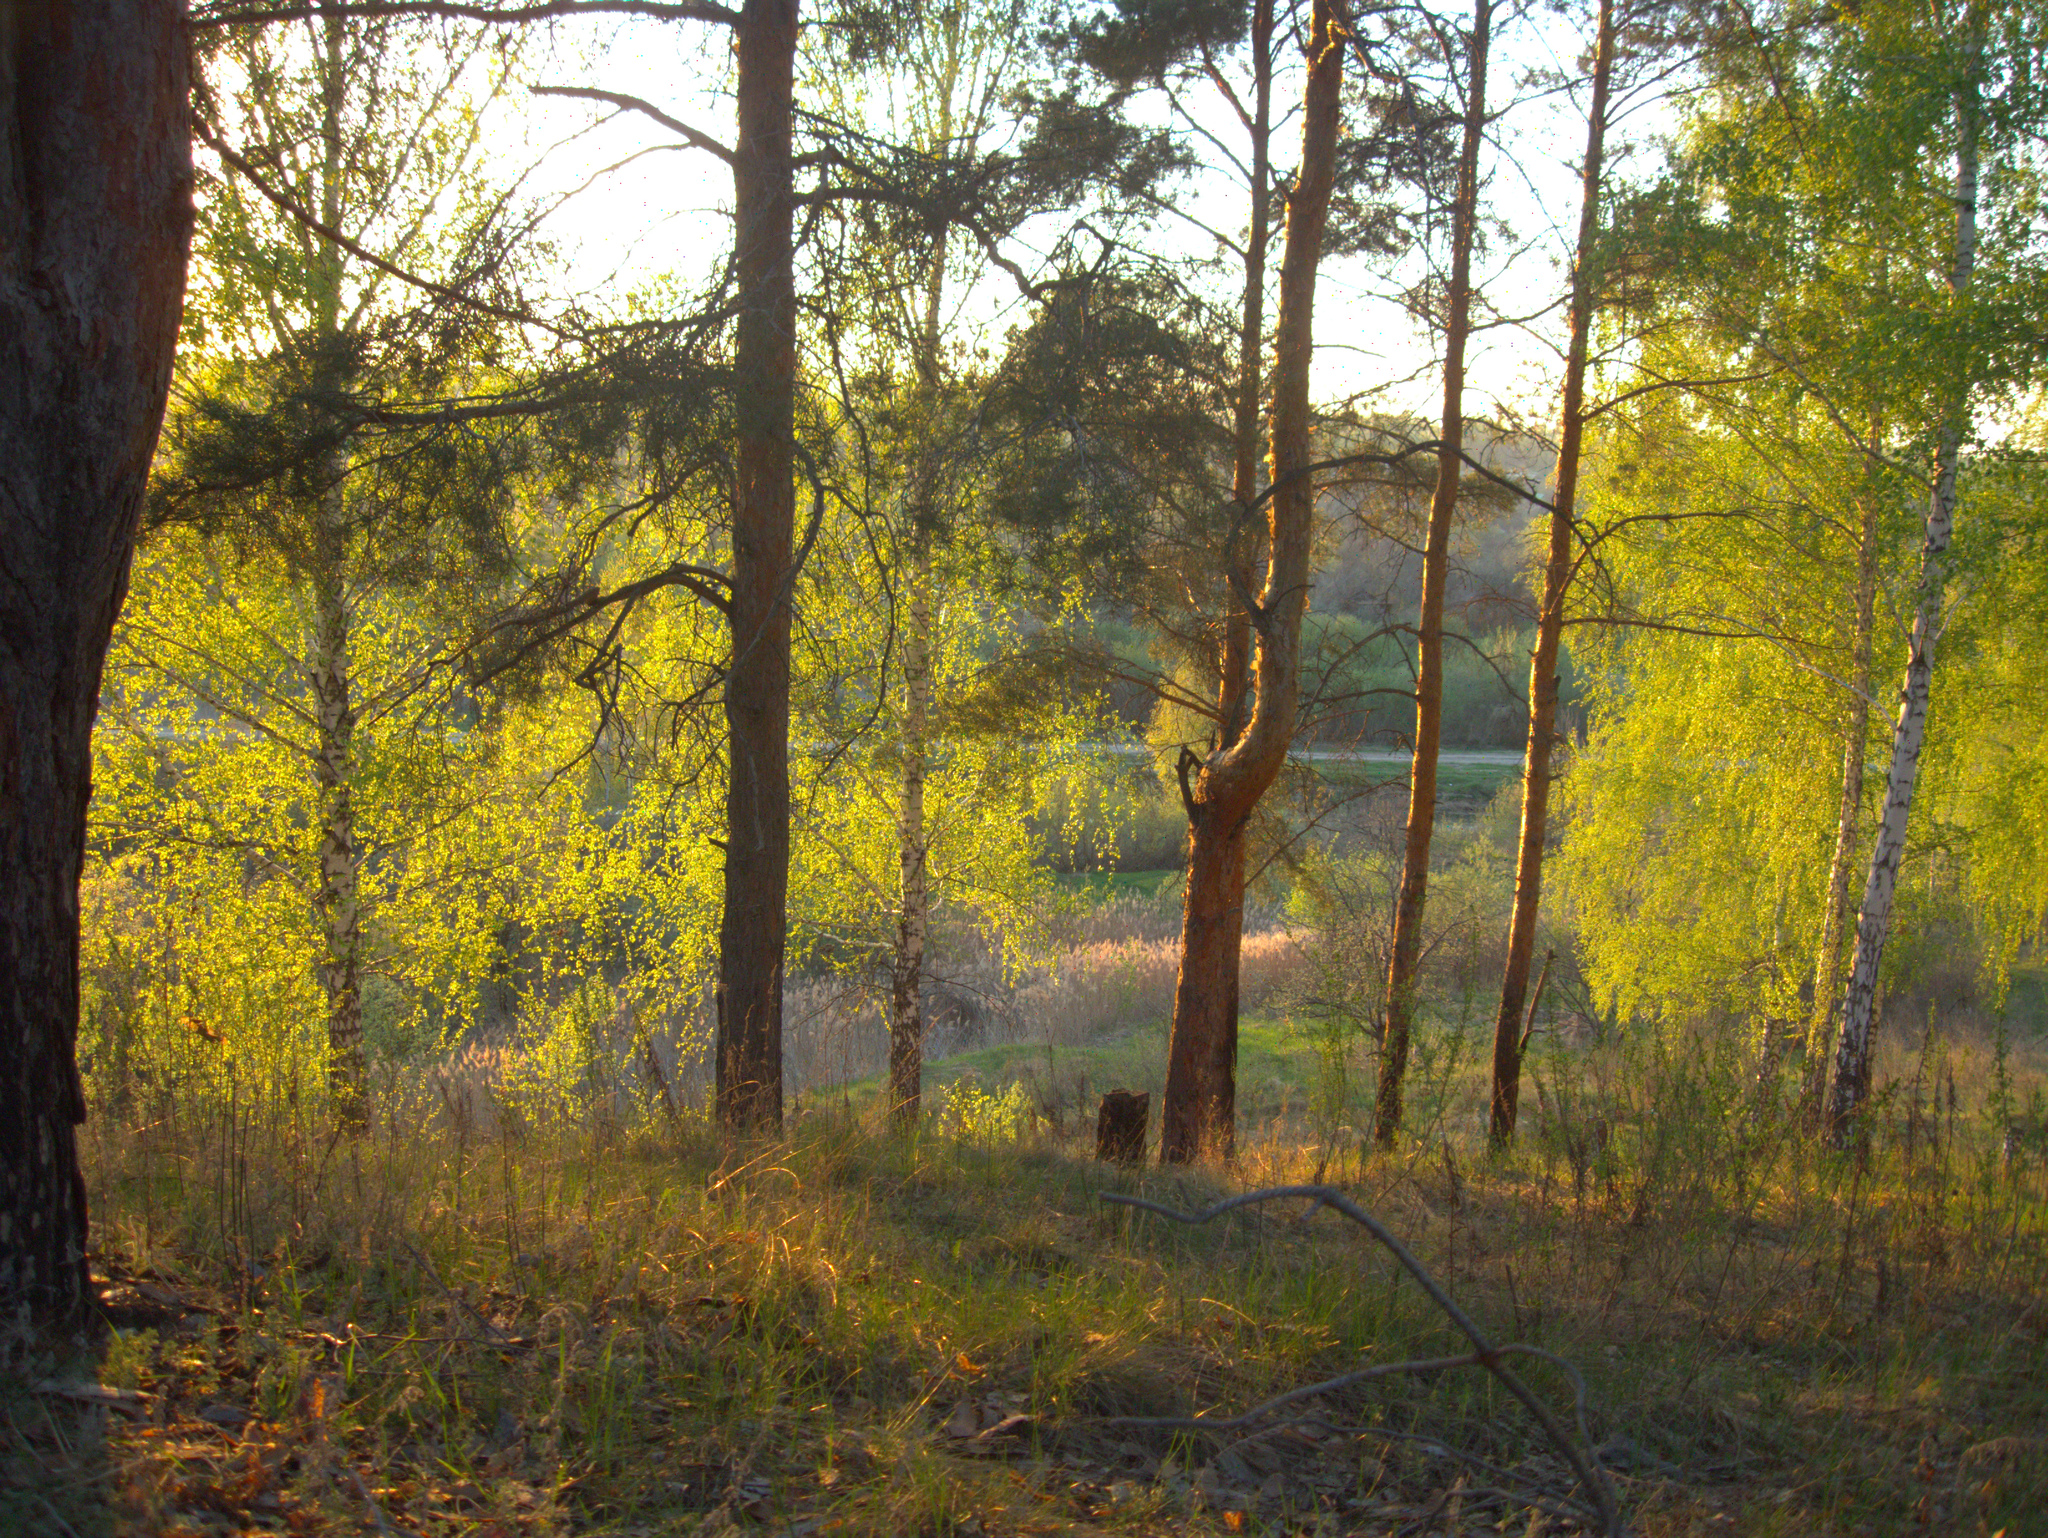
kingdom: Plantae
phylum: Tracheophyta
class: Magnoliopsida
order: Fagales
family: Betulaceae
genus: Betula
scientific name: Betula pendula
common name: Silver birch
